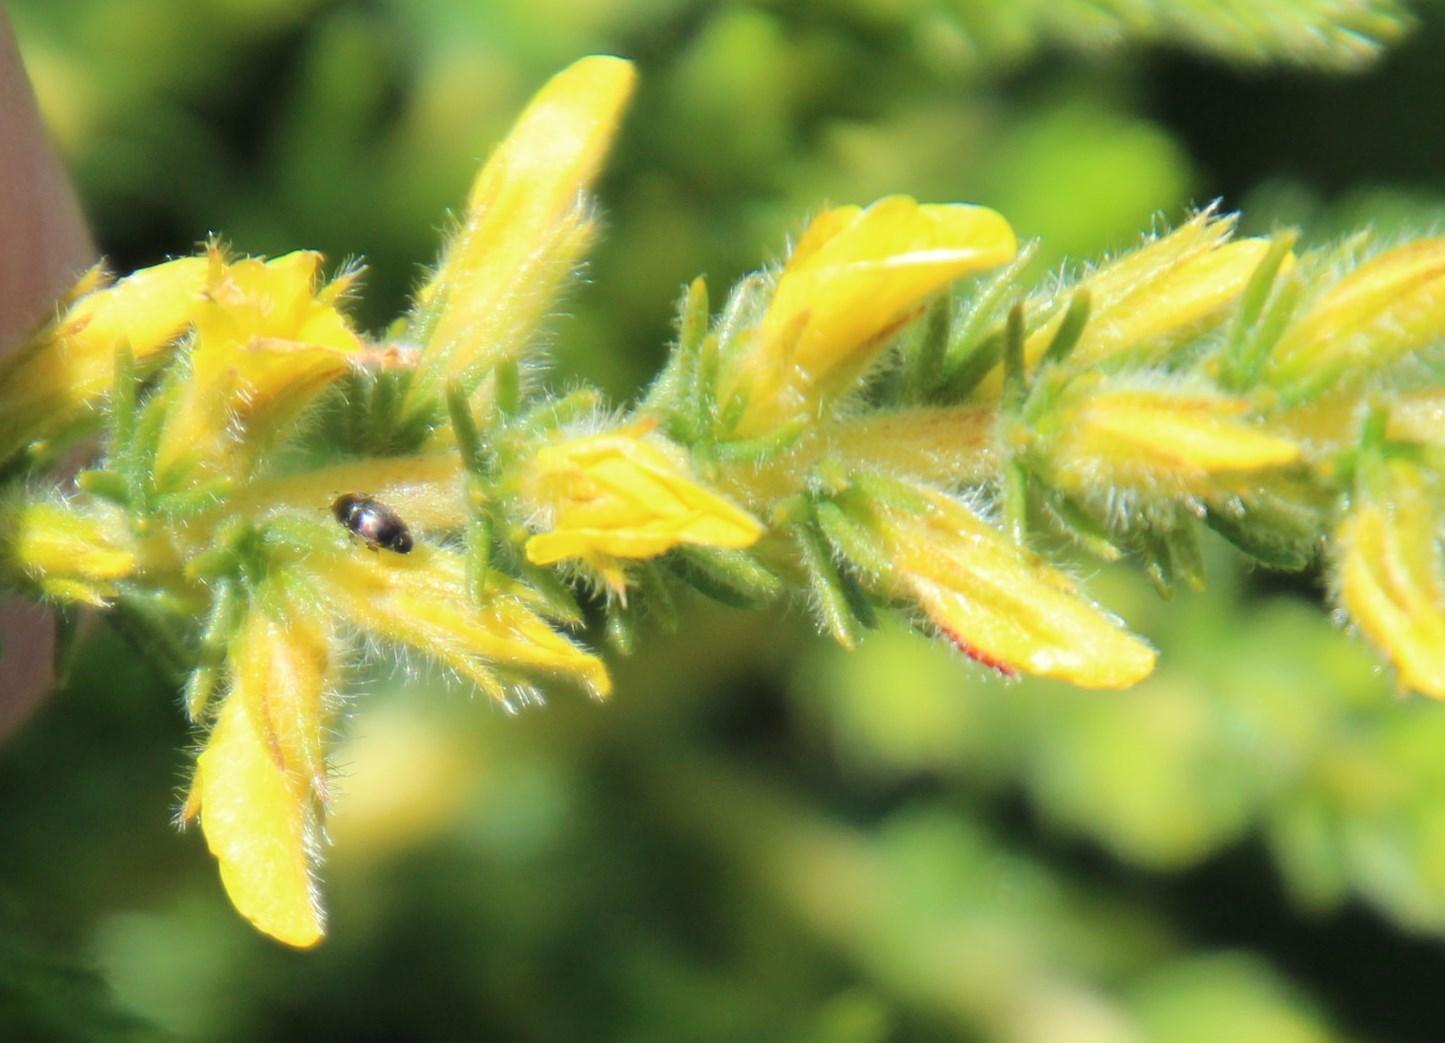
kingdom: Plantae
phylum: Tracheophyta
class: Magnoliopsida
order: Fabales
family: Fabaceae
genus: Aspalathus
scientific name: Aspalathus ericifolia
